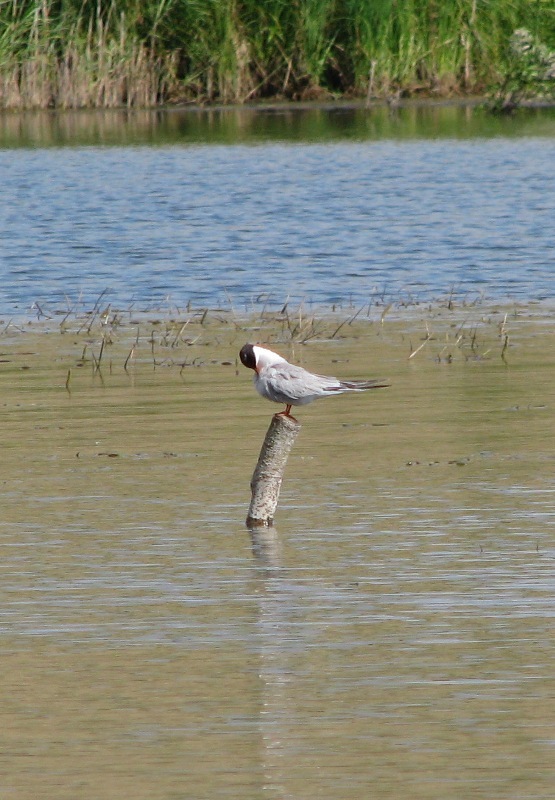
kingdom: Animalia
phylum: Chordata
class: Aves
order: Charadriiformes
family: Laridae
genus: Sterna
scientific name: Sterna hirundo
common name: Common tern
